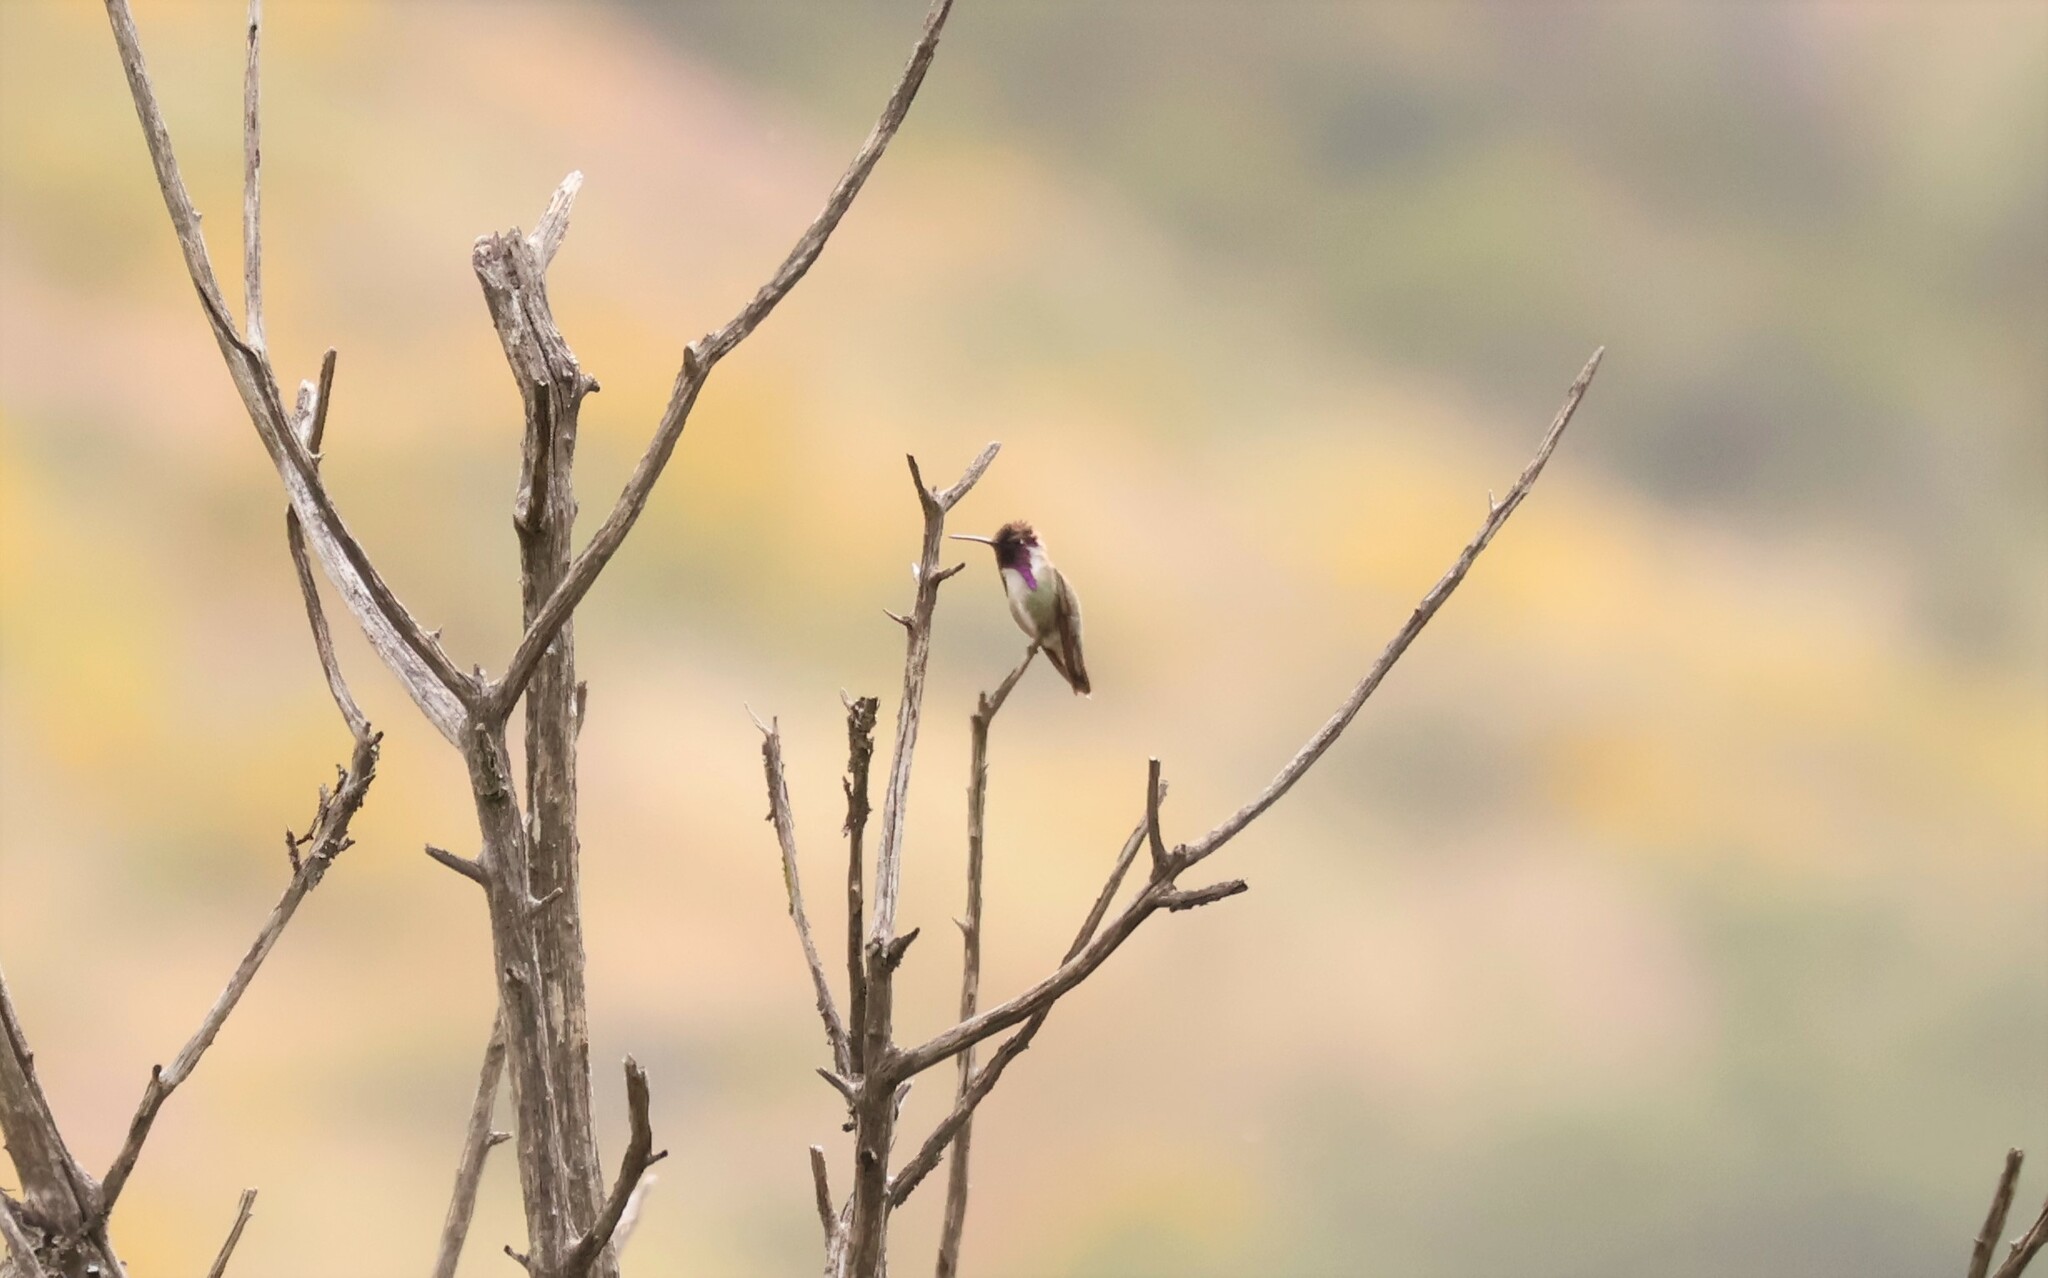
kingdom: Animalia
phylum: Chordata
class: Aves
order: Apodiformes
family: Trochilidae
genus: Calypte
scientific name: Calypte costae
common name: Costa's hummingbird
